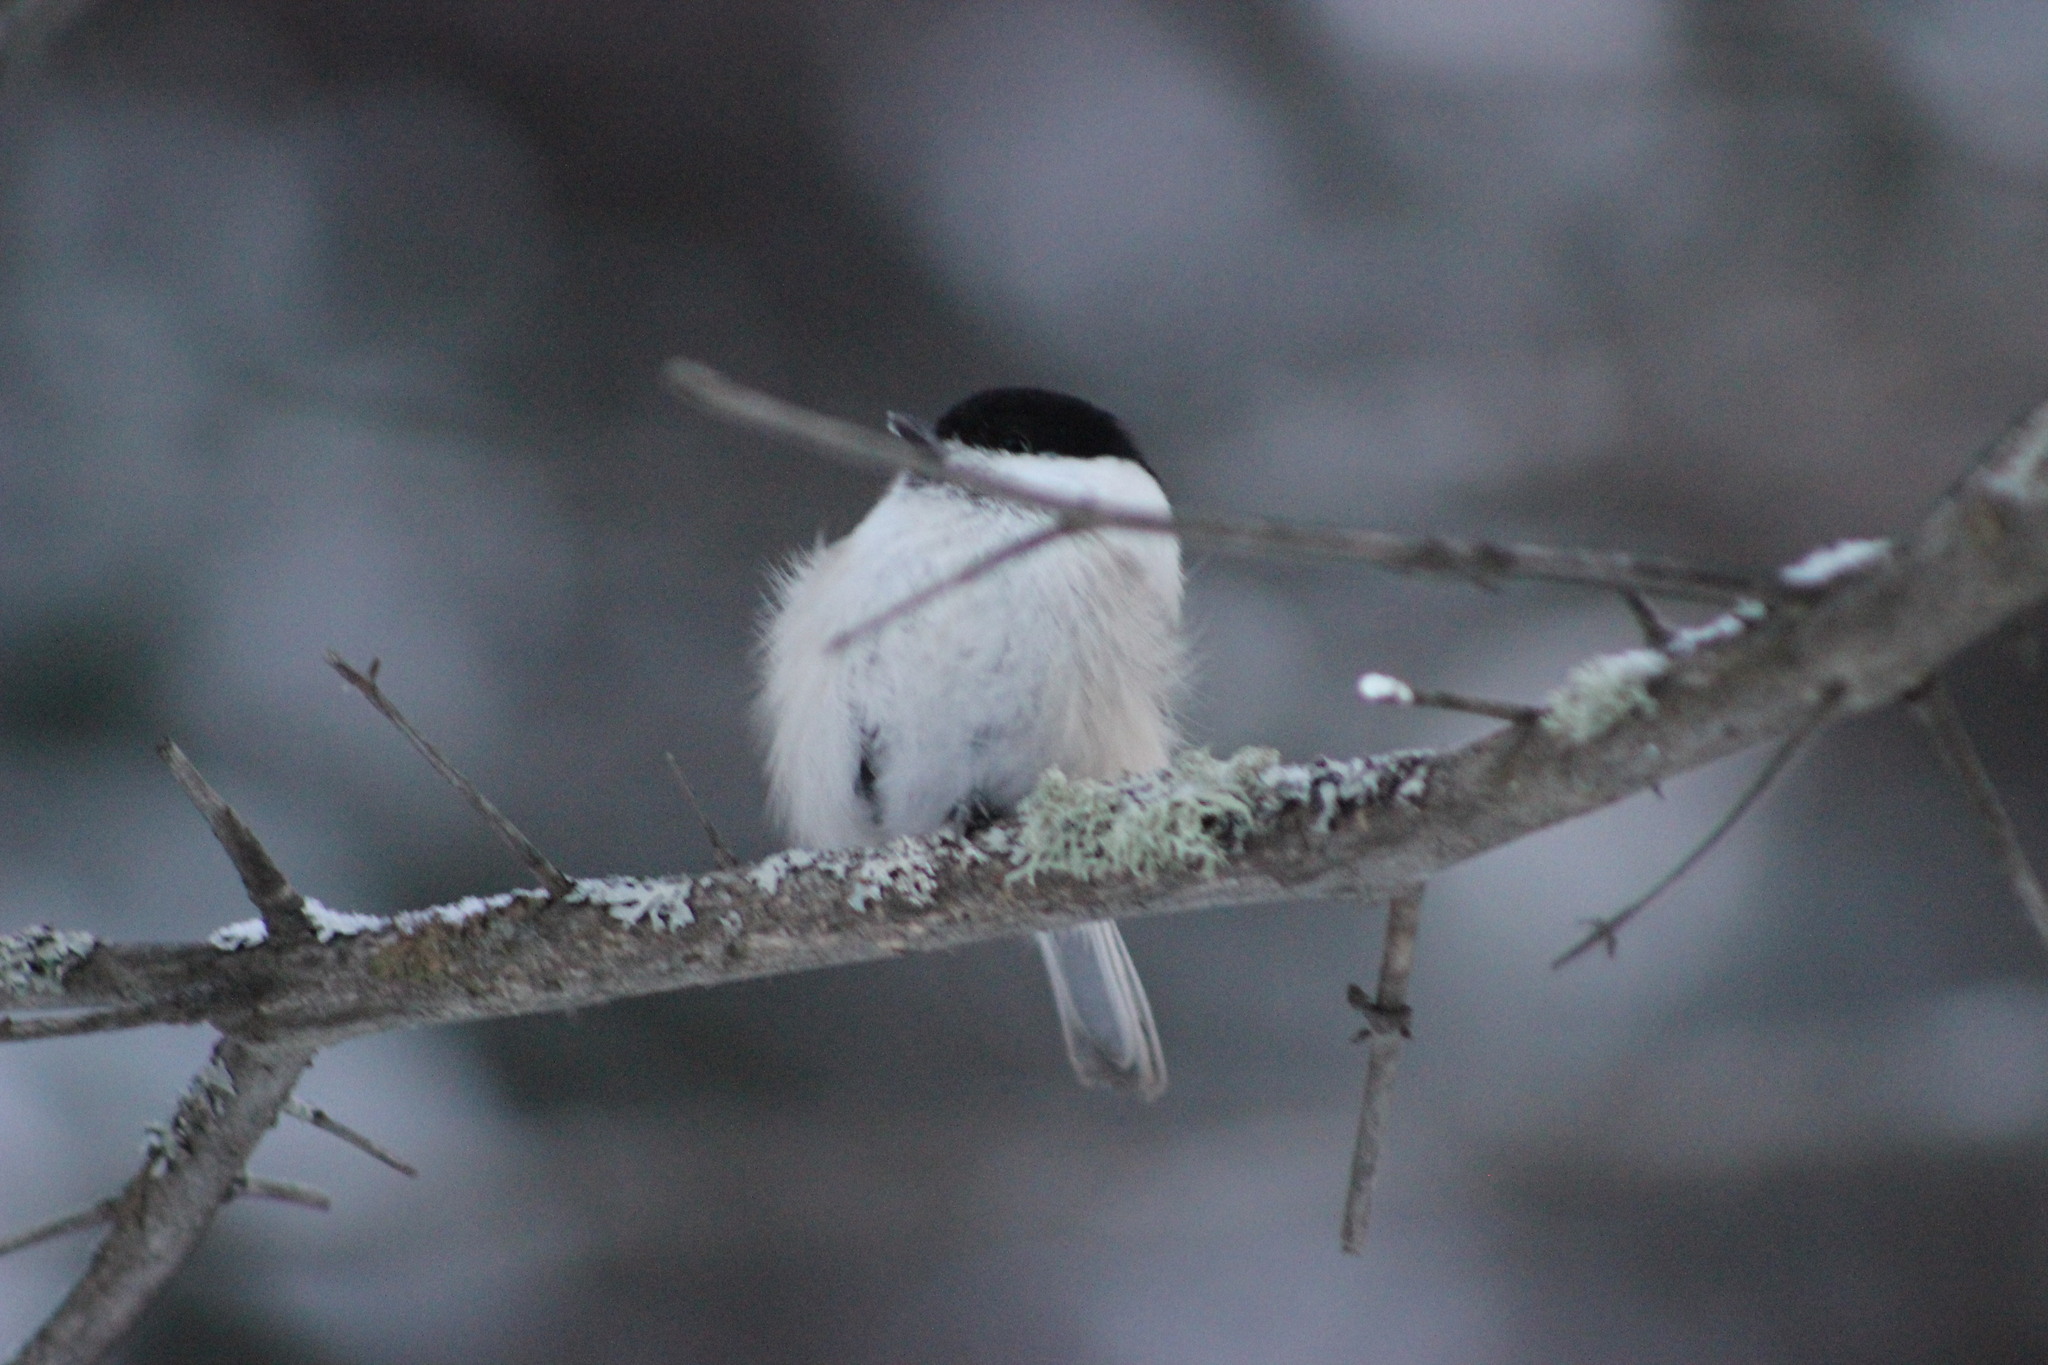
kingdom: Animalia
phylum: Chordata
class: Aves
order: Passeriformes
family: Paridae
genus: Poecile
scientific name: Poecile montanus
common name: Willow tit
